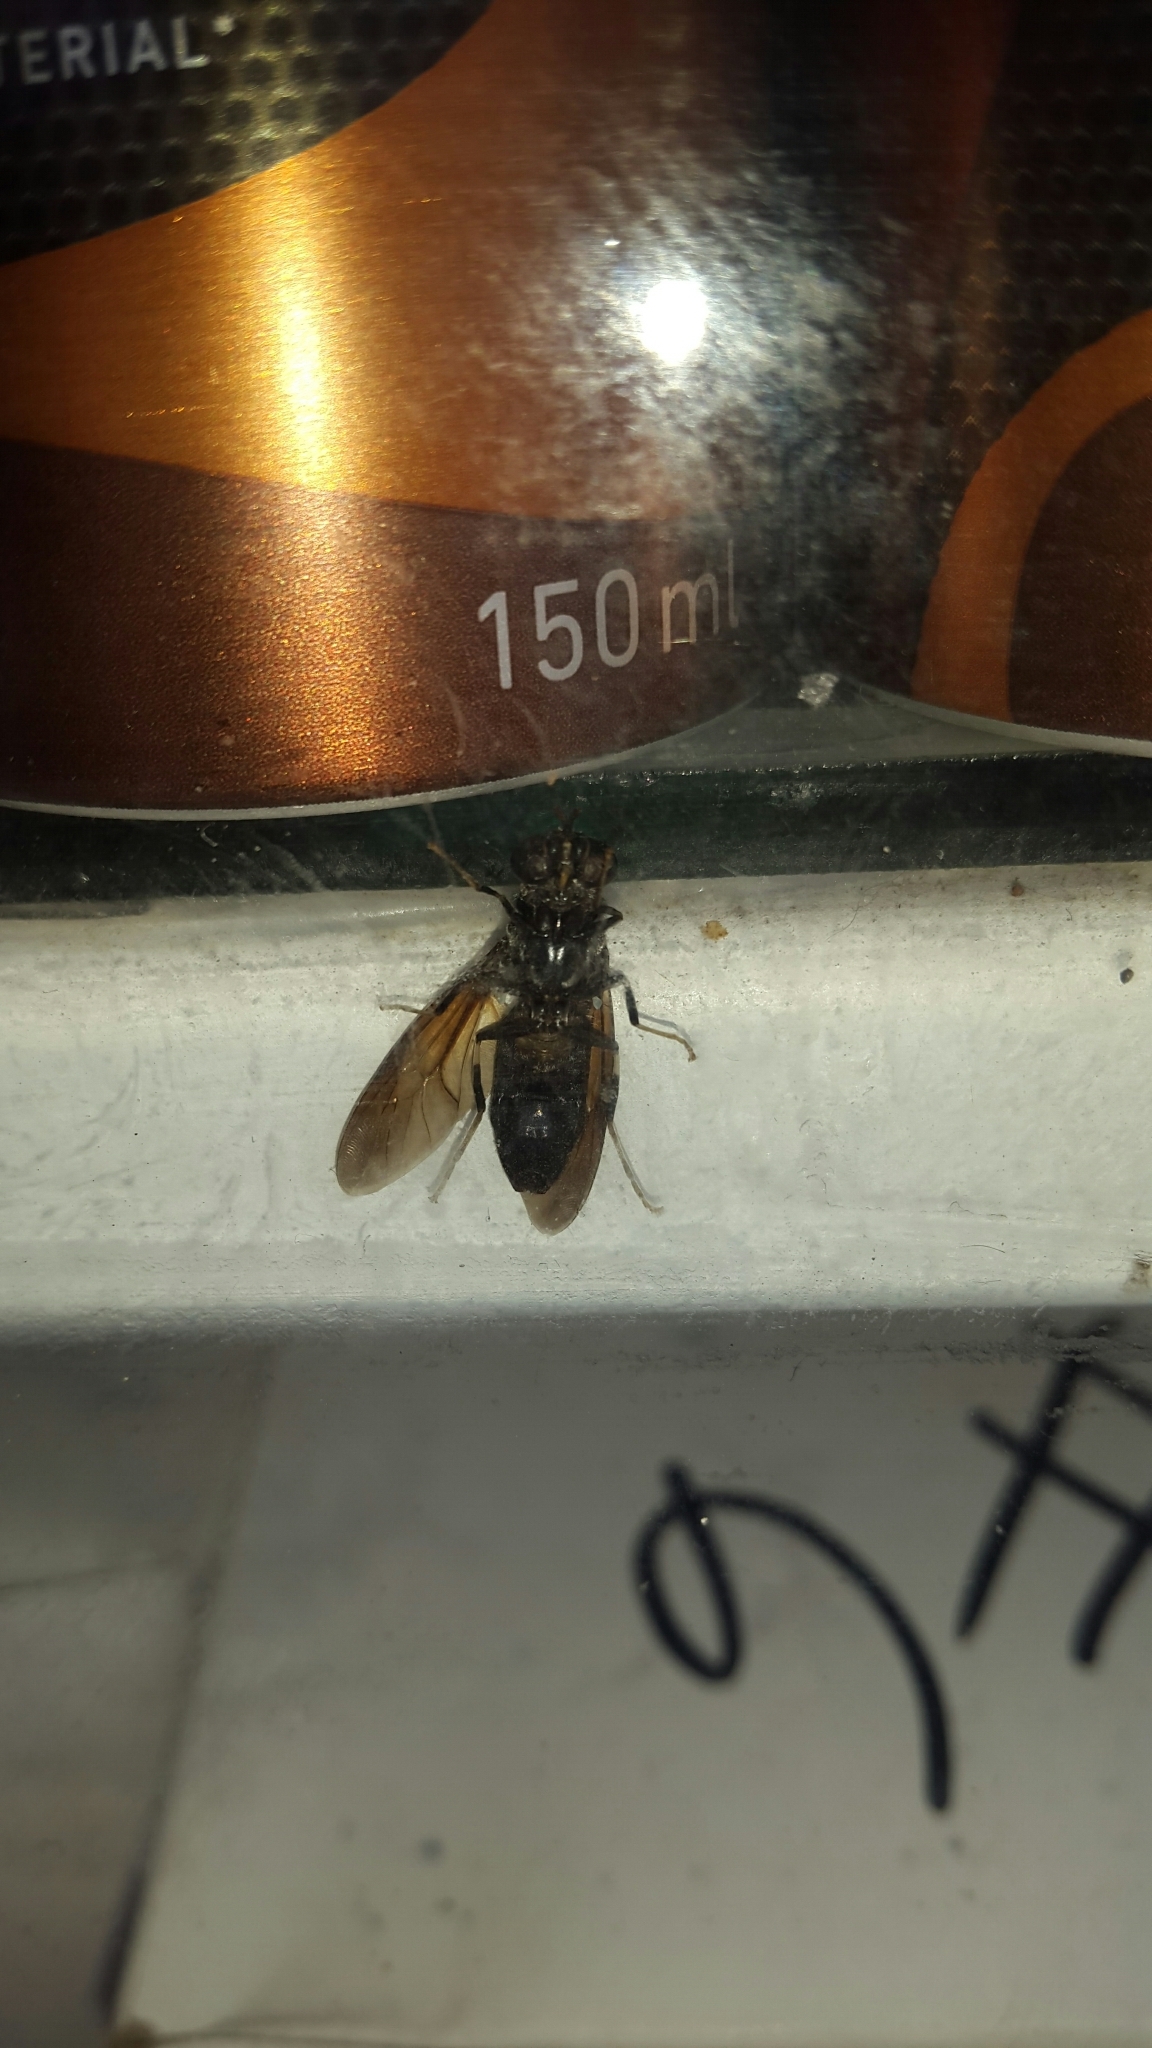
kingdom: Animalia
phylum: Arthropoda
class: Insecta
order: Diptera
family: Stratiomyidae
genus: Hermetia
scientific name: Hermetia illucens
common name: Black soldier fly
